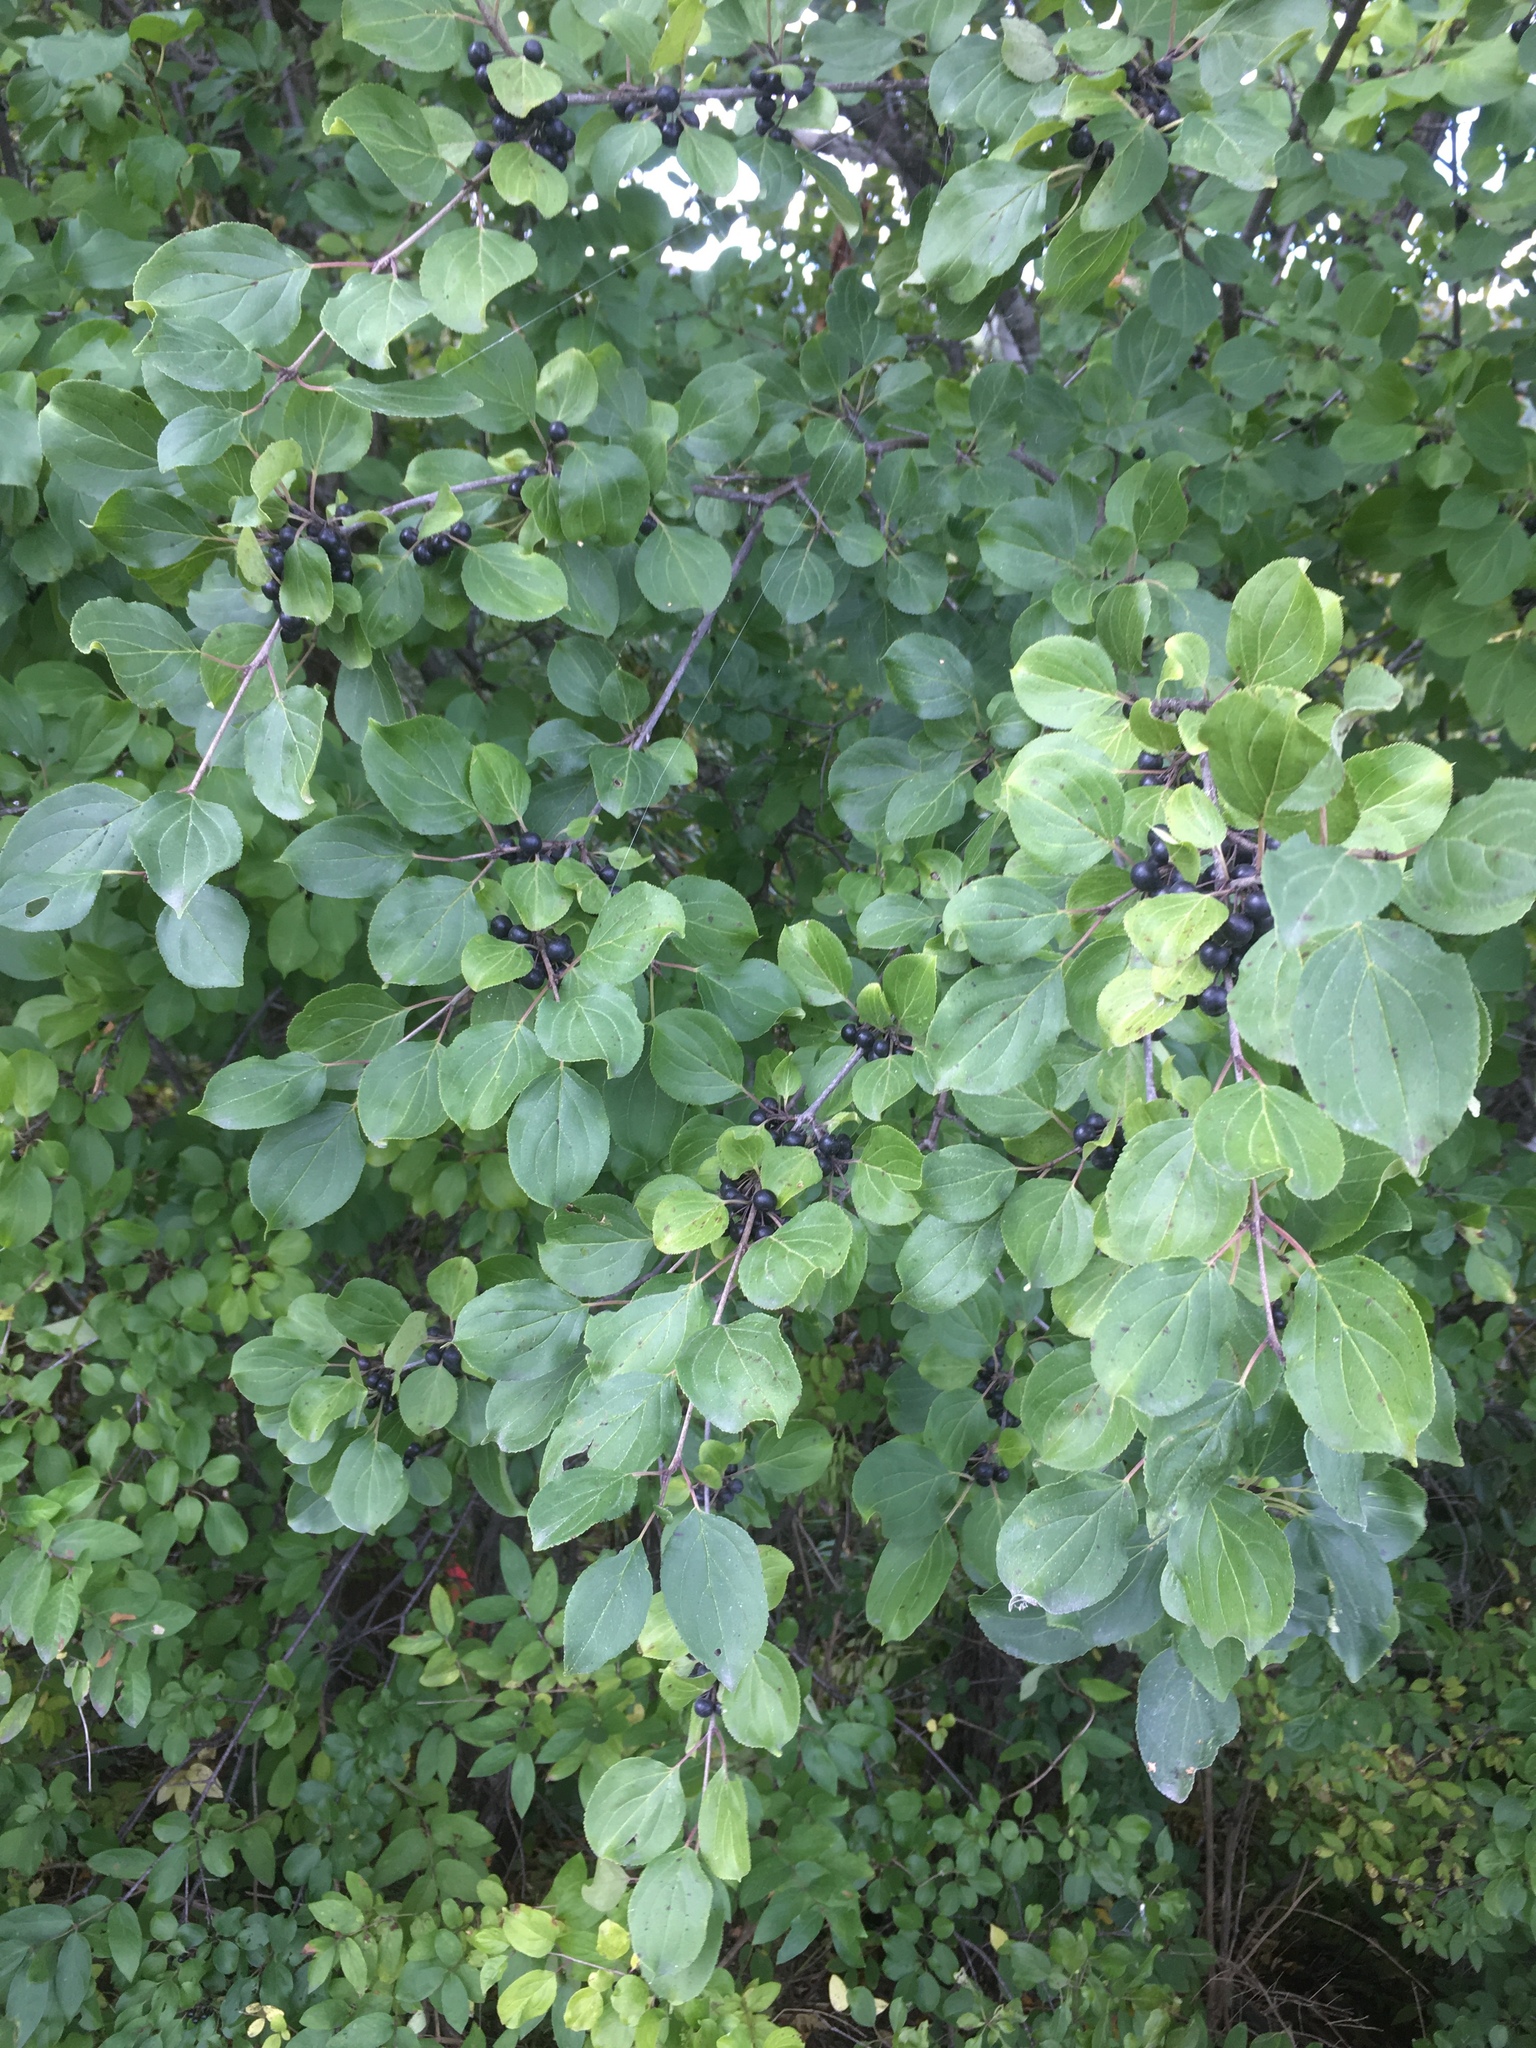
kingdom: Plantae
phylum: Tracheophyta
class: Magnoliopsida
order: Rosales
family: Rhamnaceae
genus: Rhamnus
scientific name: Rhamnus cathartica
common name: Common buckthorn
